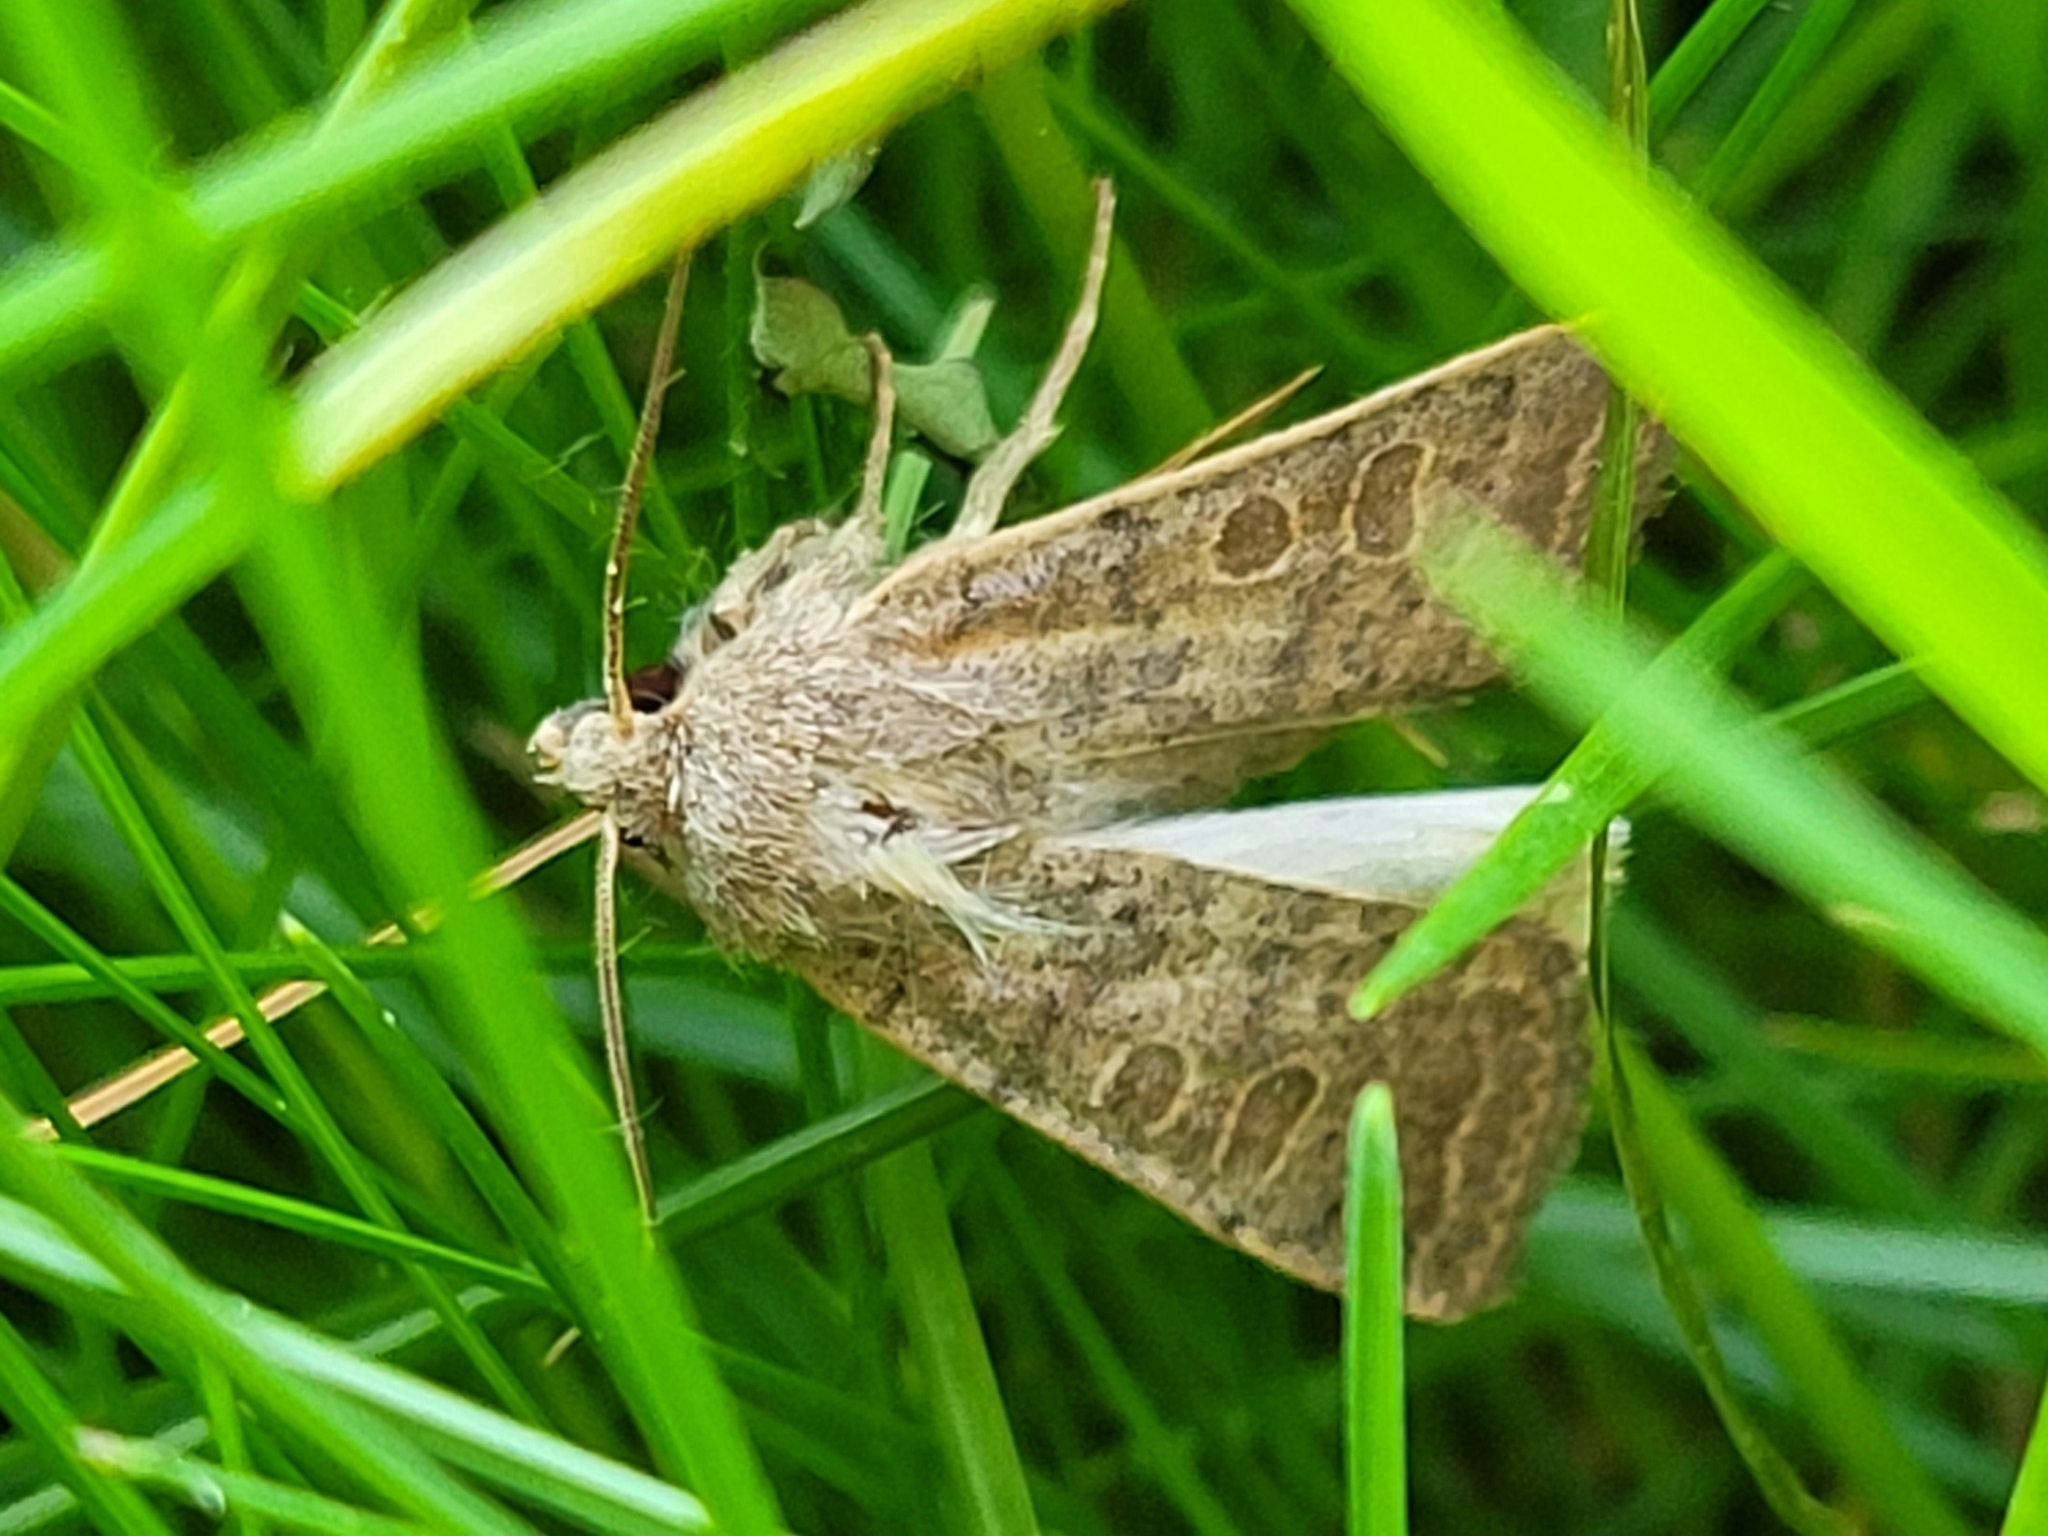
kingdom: Animalia
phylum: Arthropoda
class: Insecta
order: Lepidoptera
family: Noctuidae
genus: Hoplodrina
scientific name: Hoplodrina ambigua
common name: Vine's rustic
